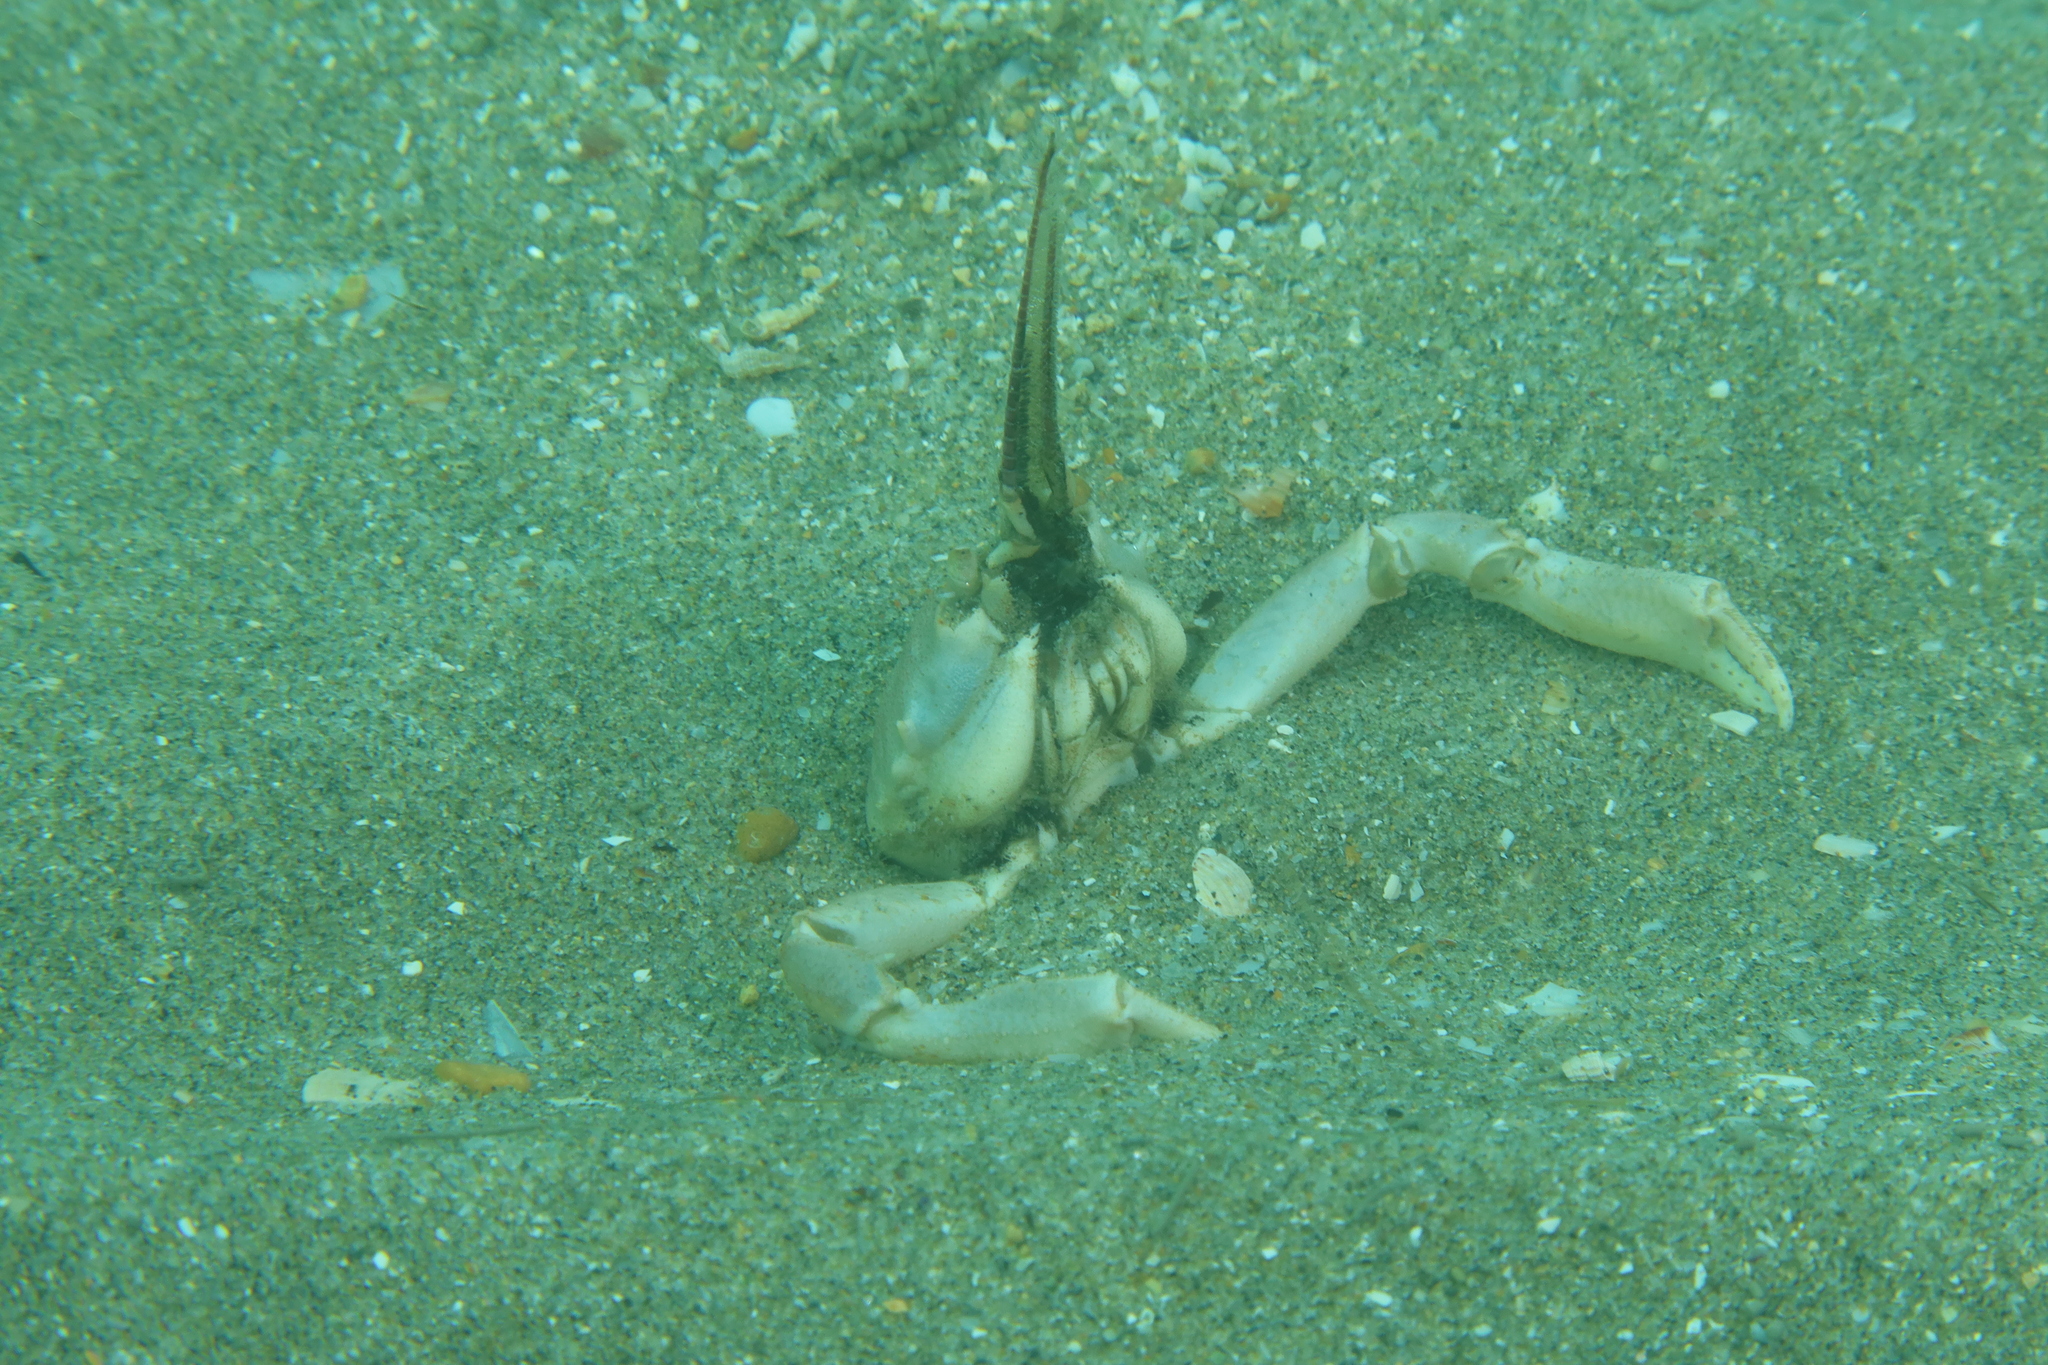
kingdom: Animalia
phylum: Arthropoda
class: Malacostraca
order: Decapoda
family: Corystidae
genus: Corystes
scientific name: Corystes cassivelaunus
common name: Masked crab
